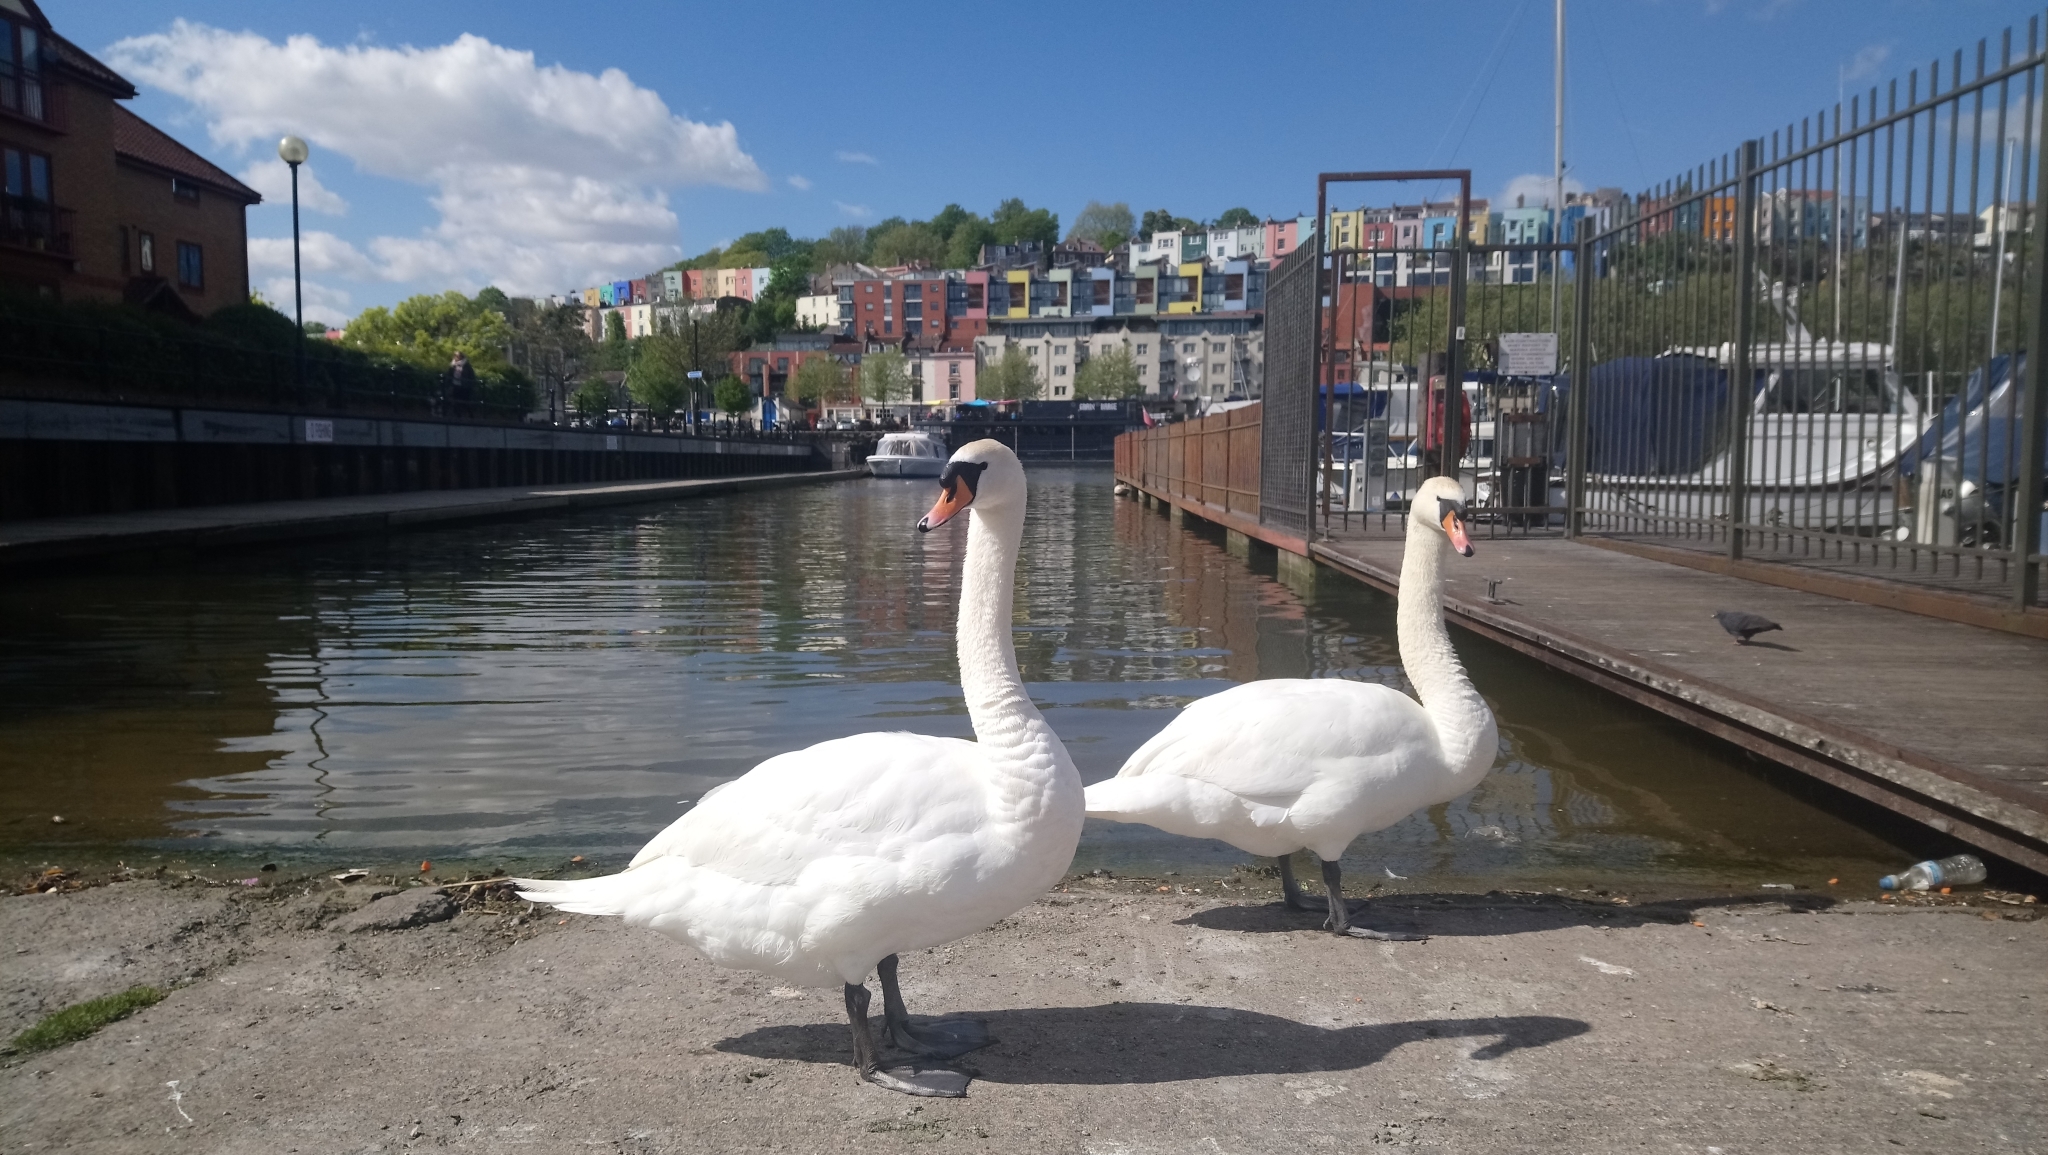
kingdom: Animalia
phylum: Chordata
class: Aves
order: Anseriformes
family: Anatidae
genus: Cygnus
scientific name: Cygnus olor
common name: Mute swan
